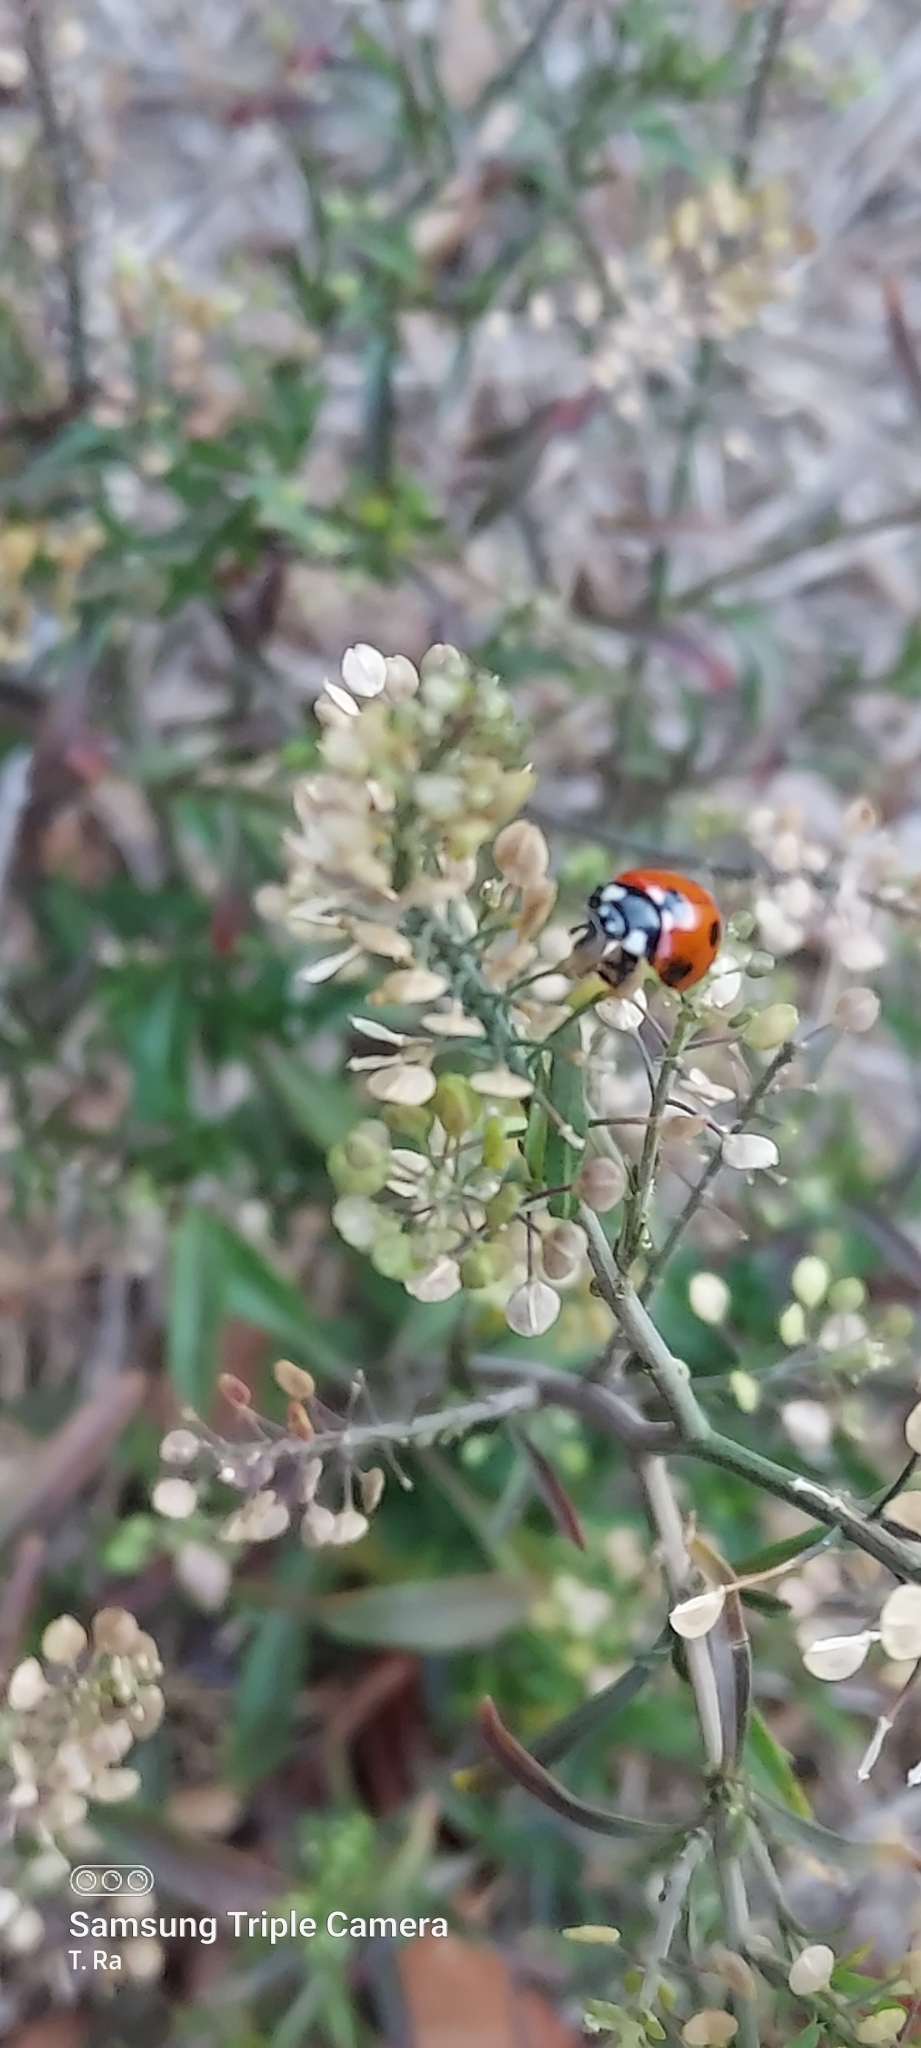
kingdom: Animalia
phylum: Arthropoda
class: Insecta
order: Coleoptera
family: Coccinellidae
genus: Coccinella
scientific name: Coccinella septempunctata
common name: Sevenspotted lady beetle
